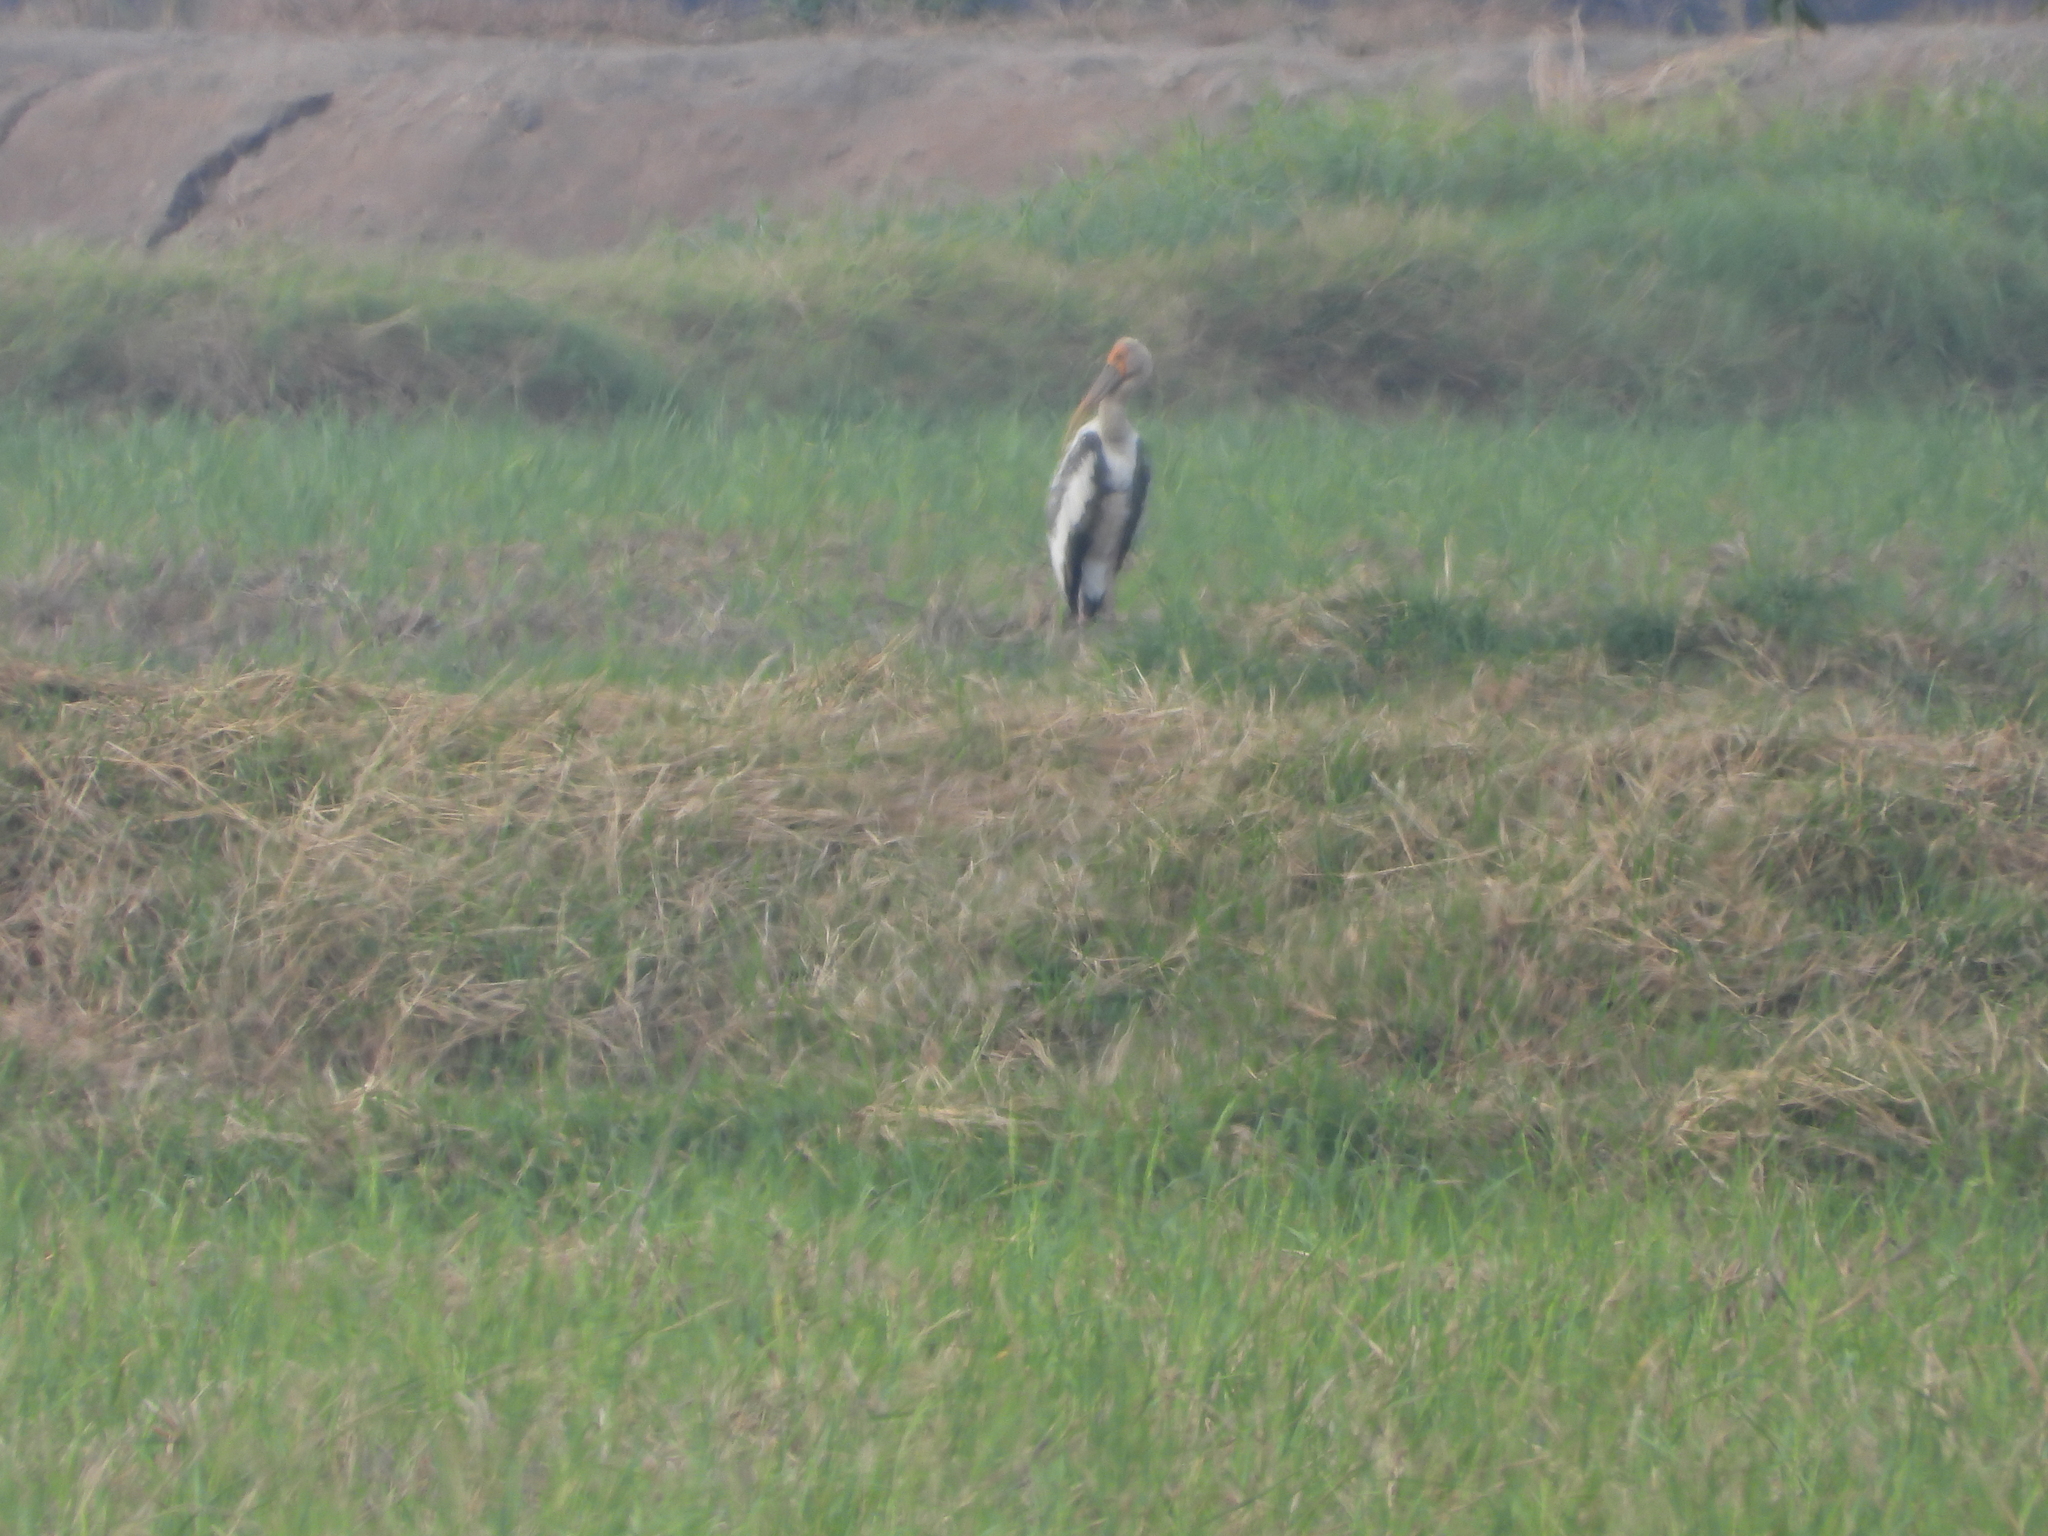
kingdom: Animalia
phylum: Chordata
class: Aves
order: Ciconiiformes
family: Ciconiidae
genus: Mycteria
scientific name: Mycteria leucocephala
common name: Painted stork
